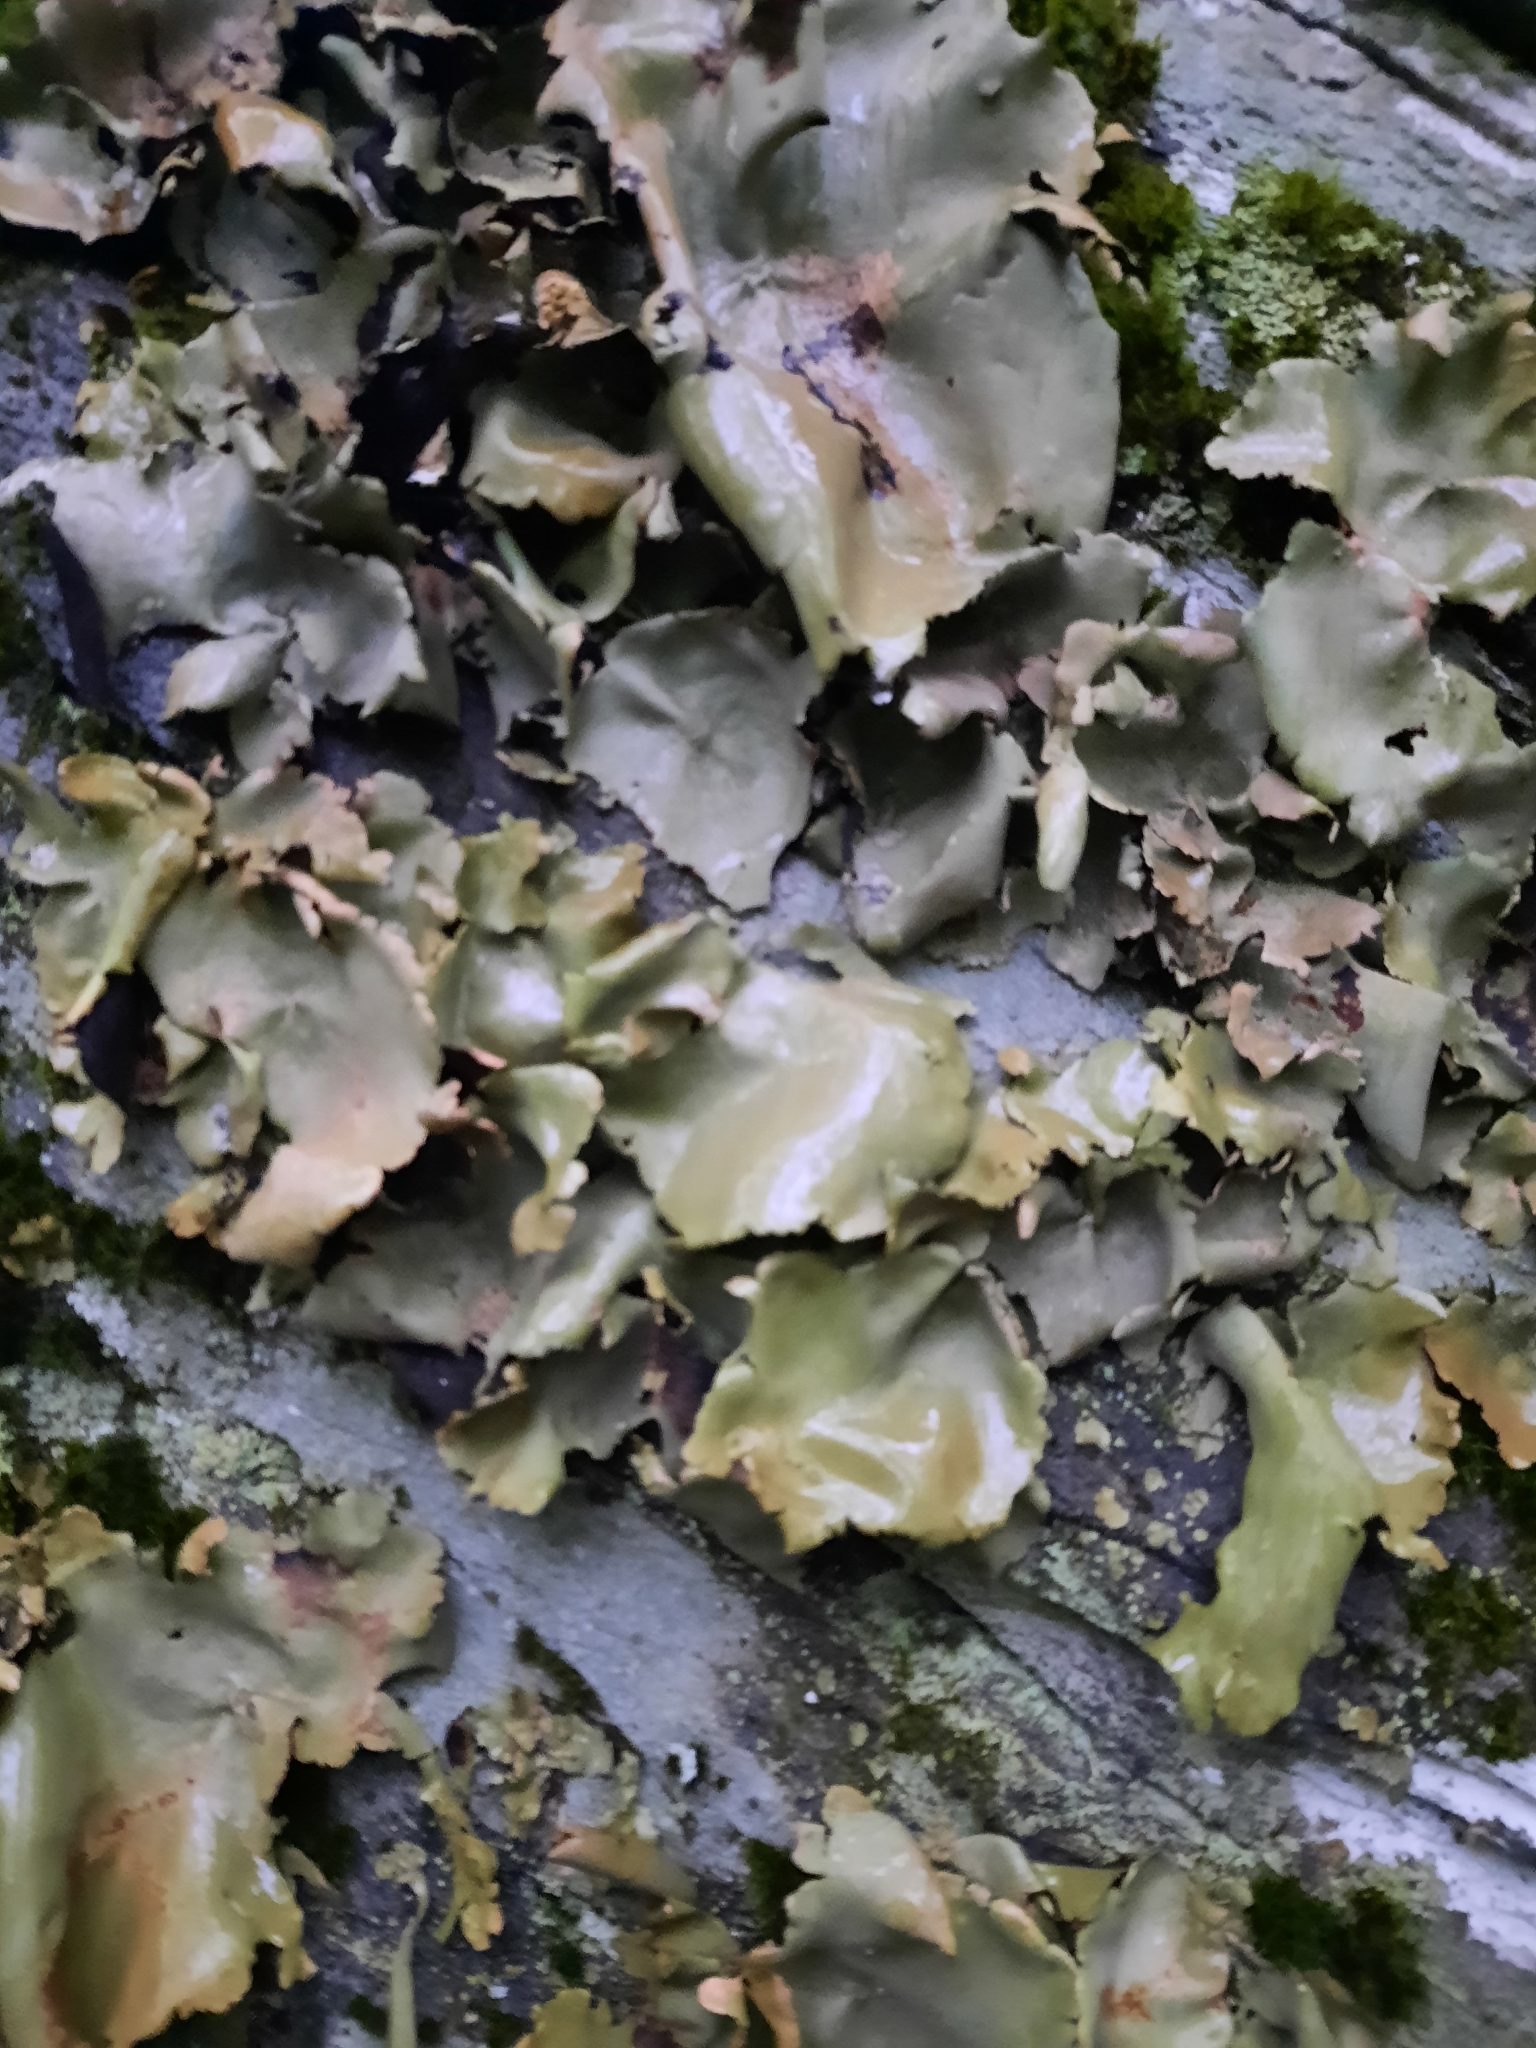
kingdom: Fungi
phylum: Ascomycota
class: Lecanoromycetes
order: Umbilicariales
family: Umbilicariaceae
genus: Umbilicaria
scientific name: Umbilicaria mammulata
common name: Smooth rock tripe
